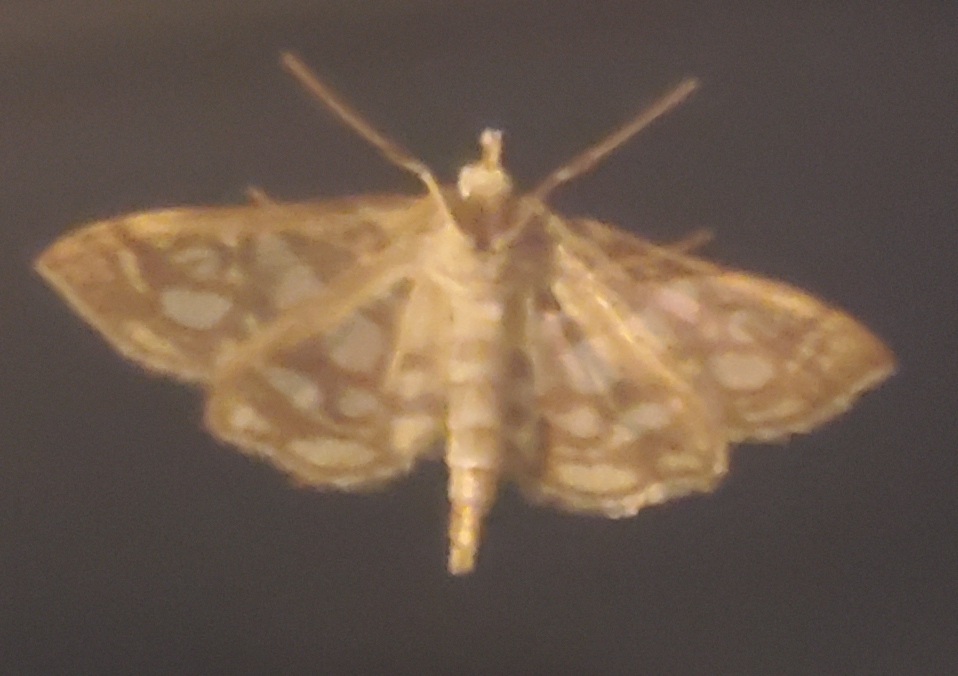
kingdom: Animalia
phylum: Arthropoda
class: Insecta
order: Lepidoptera
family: Crambidae
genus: Lygropia
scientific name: Lygropia rivulalis
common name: Bog lygropia moth
